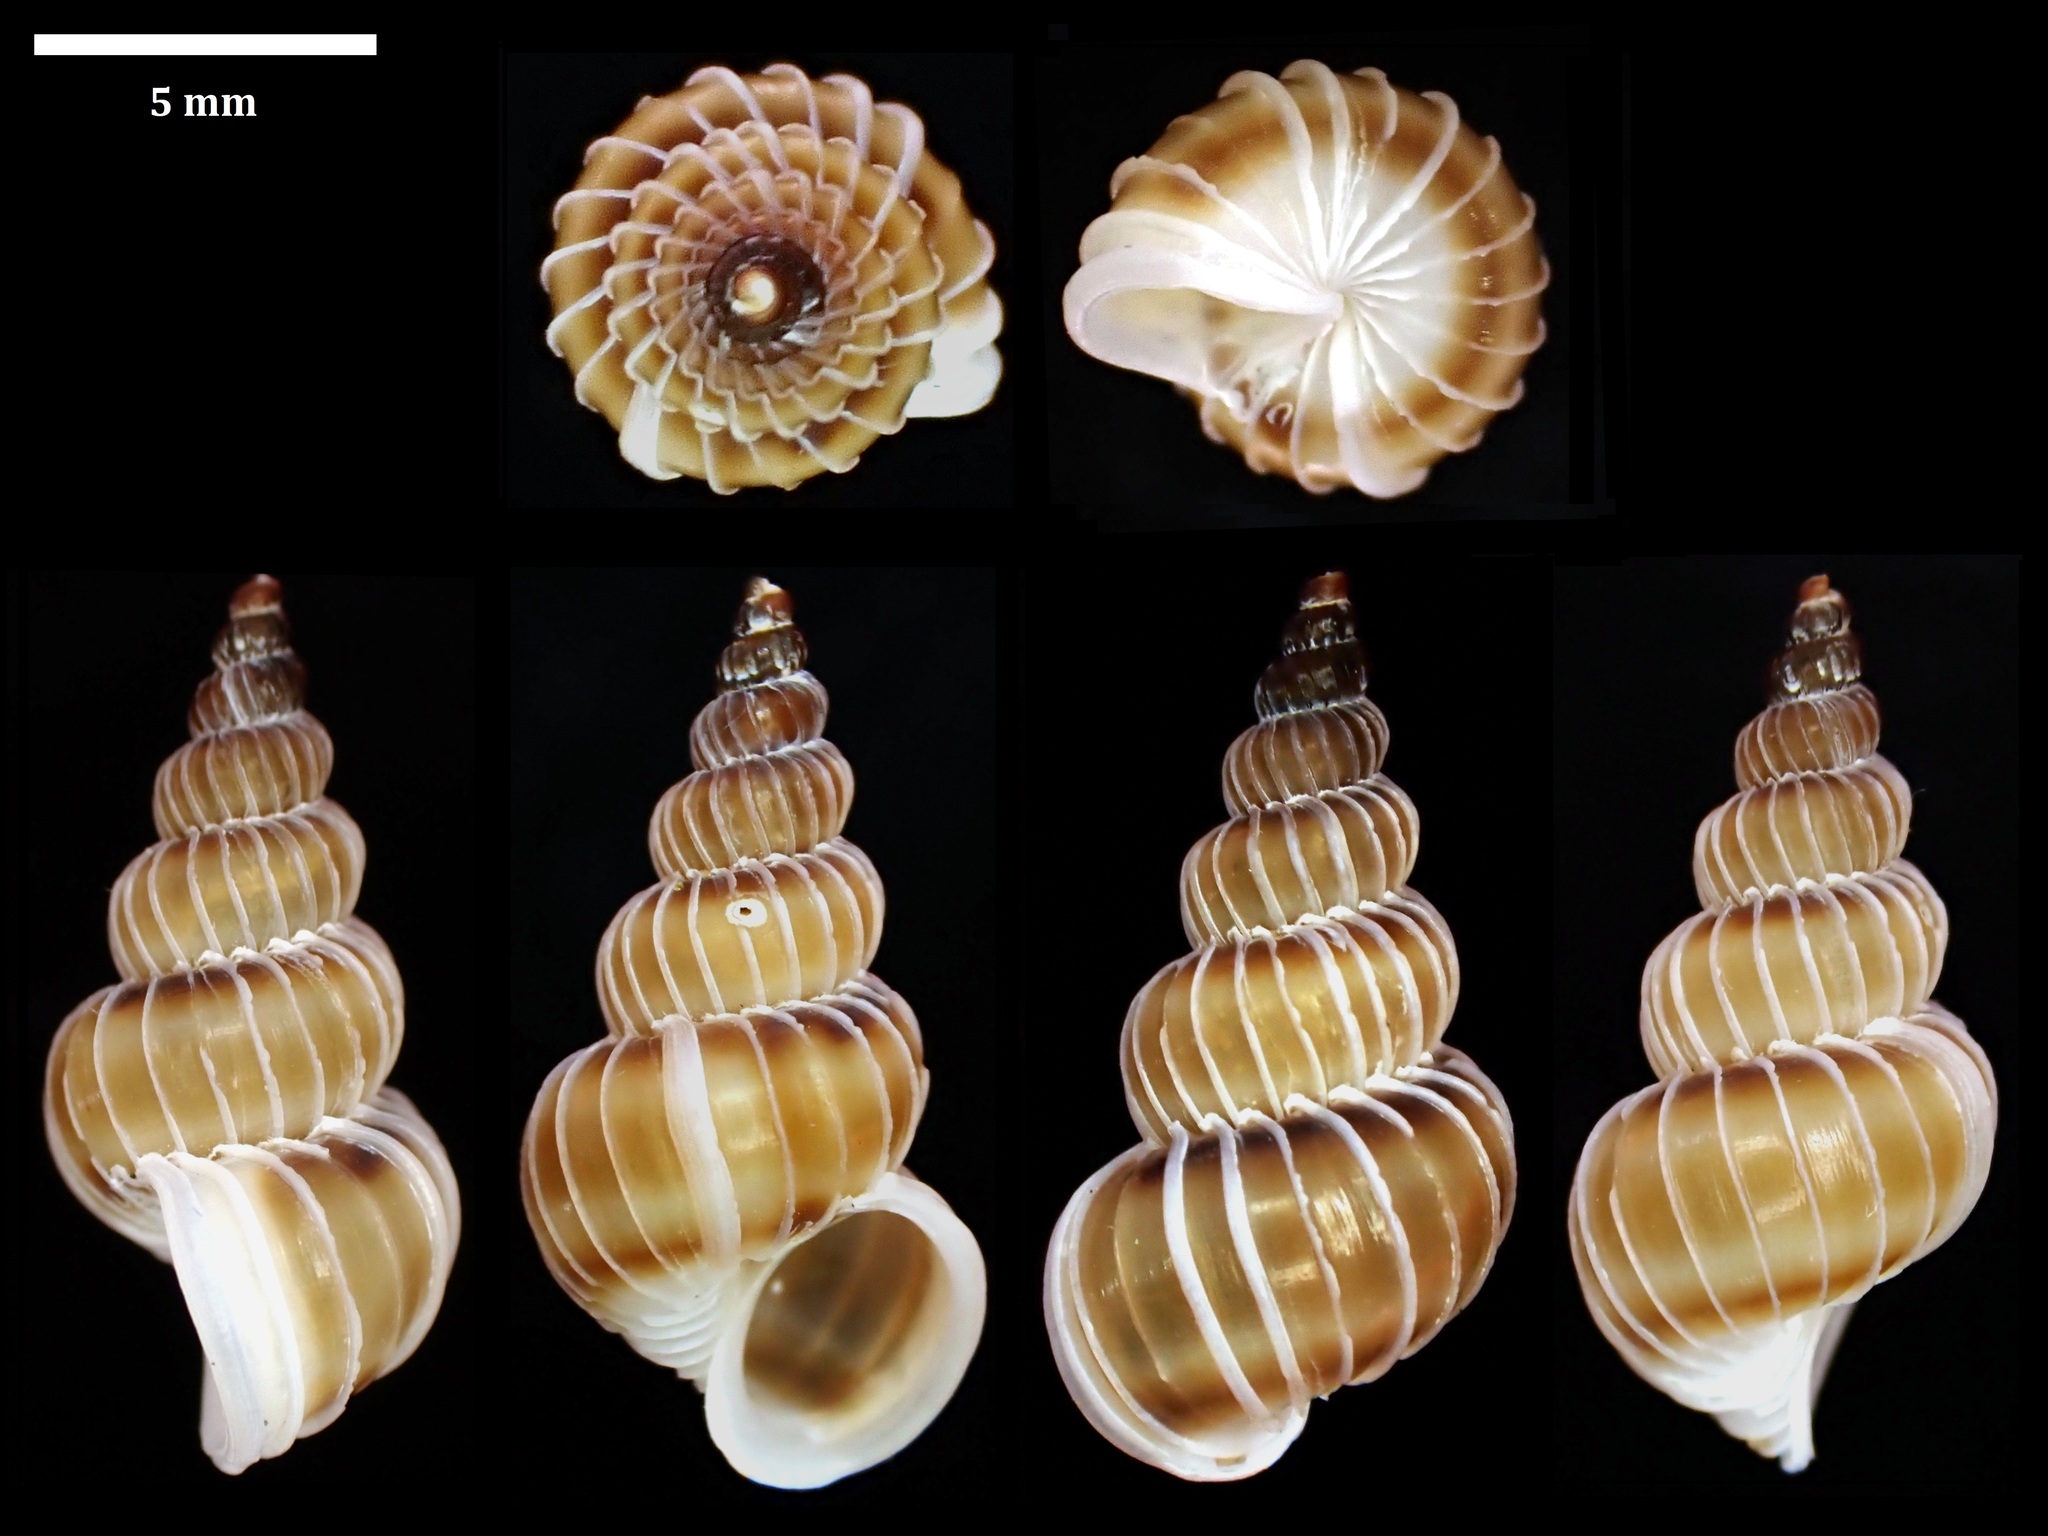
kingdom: Animalia
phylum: Mollusca
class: Gastropoda
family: Epitoniidae
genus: Epitonium
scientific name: Epitonium tenellum
